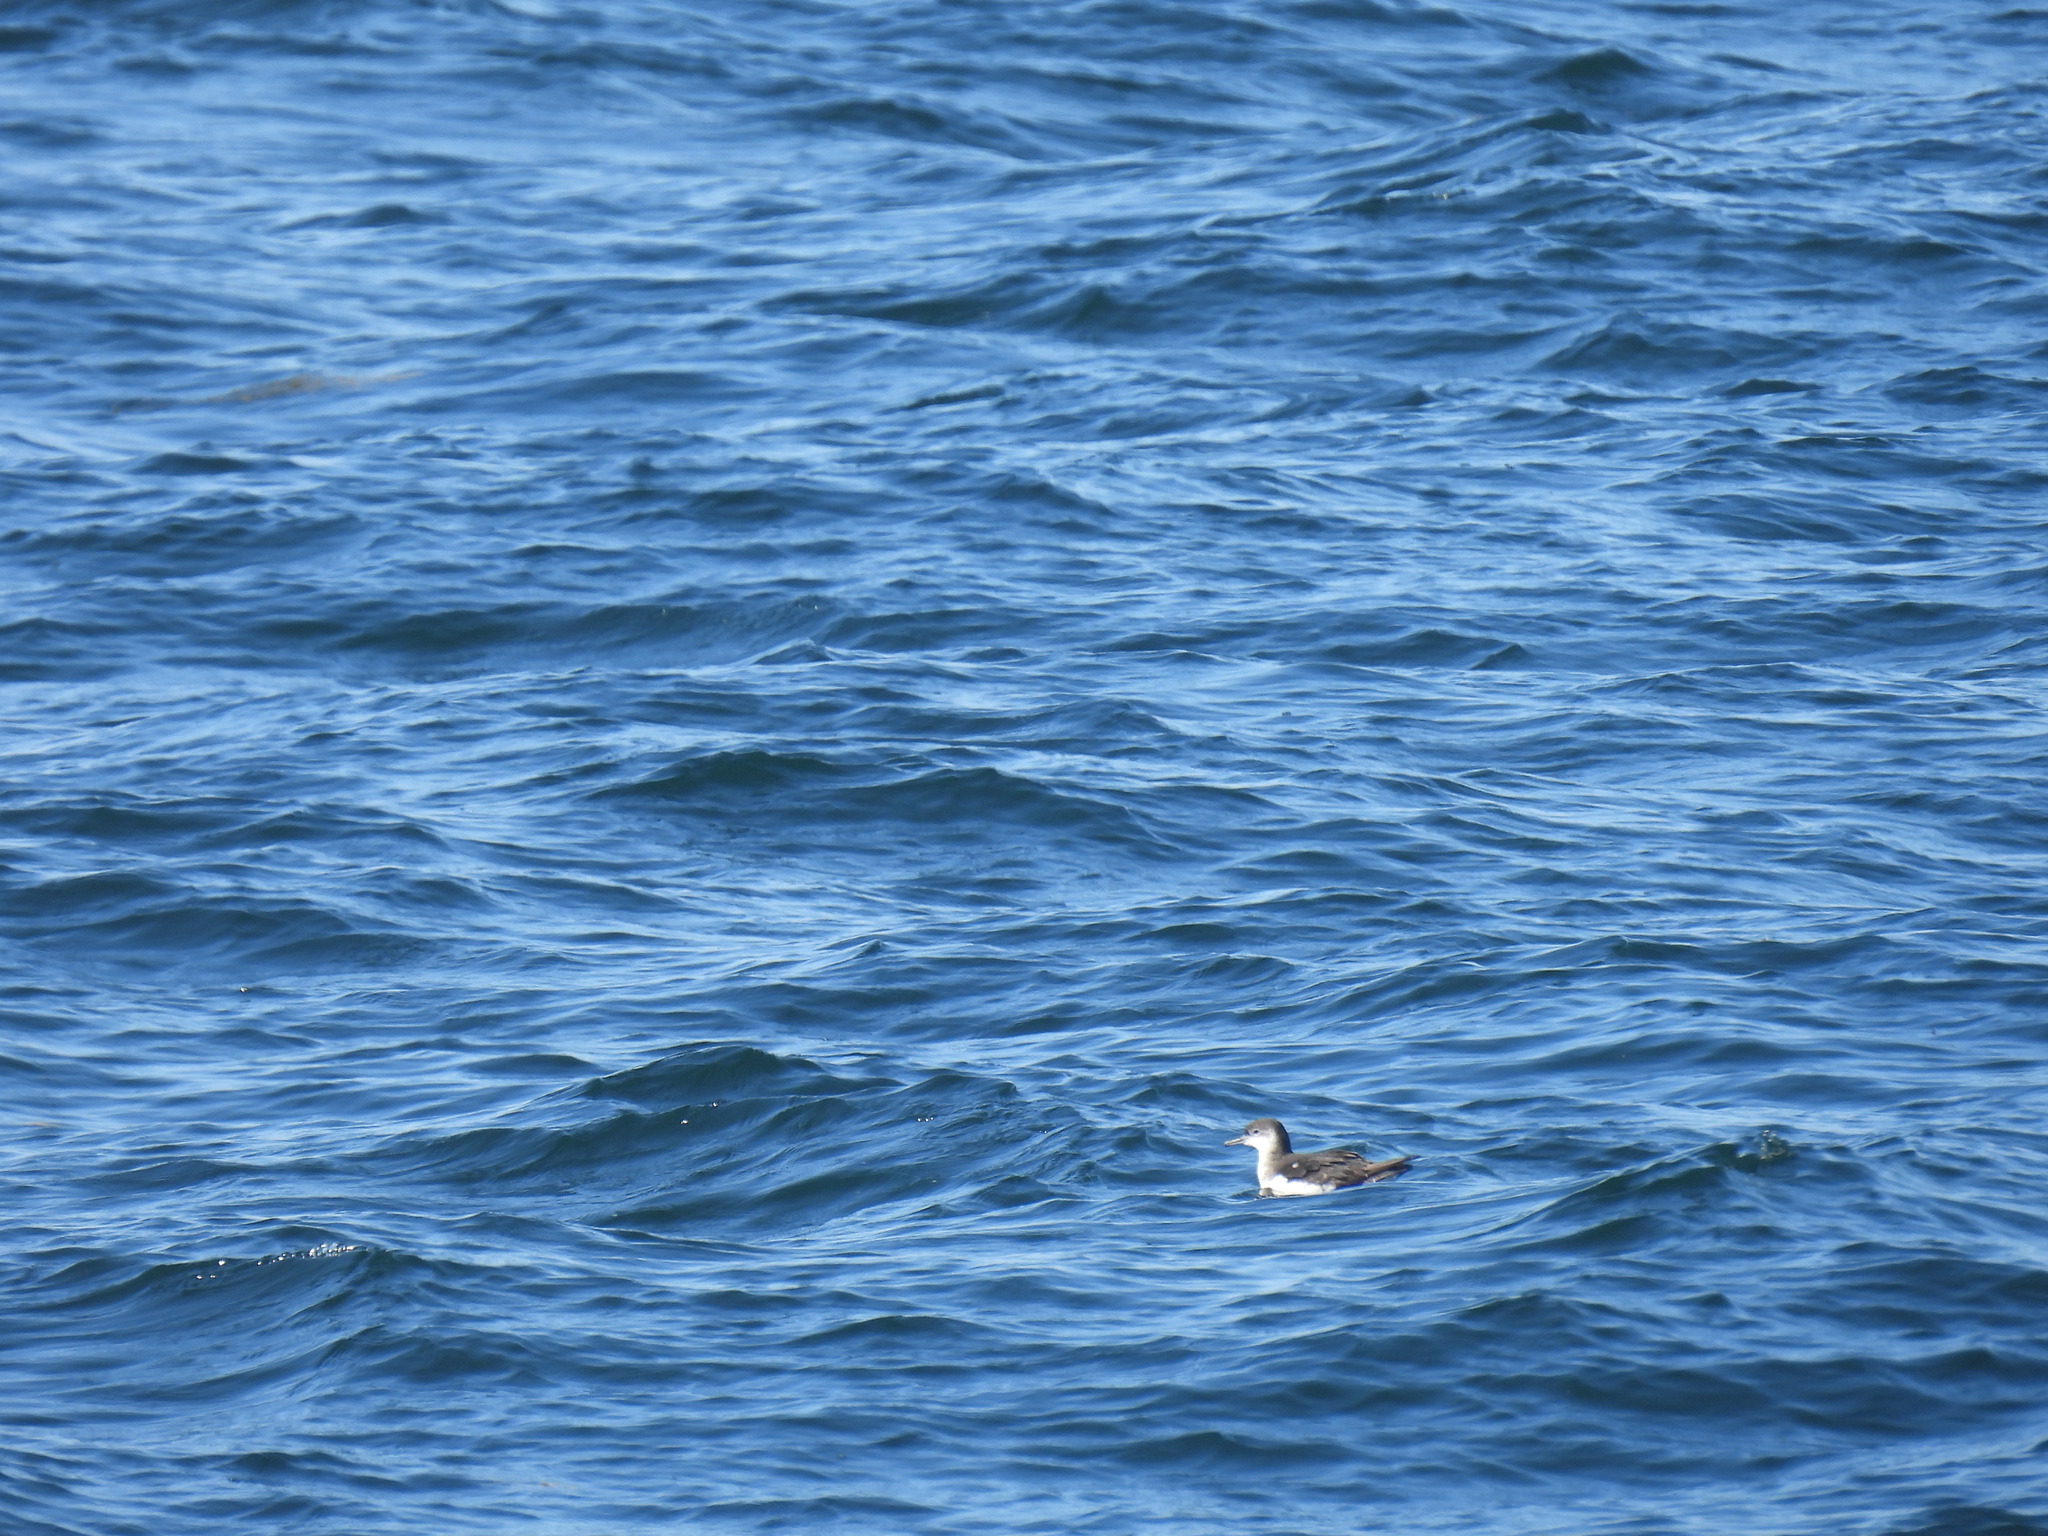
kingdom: Animalia
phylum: Chordata
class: Aves
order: Procellariiformes
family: Procellariidae
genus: Puffinus
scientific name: Puffinus puffinus
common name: Manx shearwater
